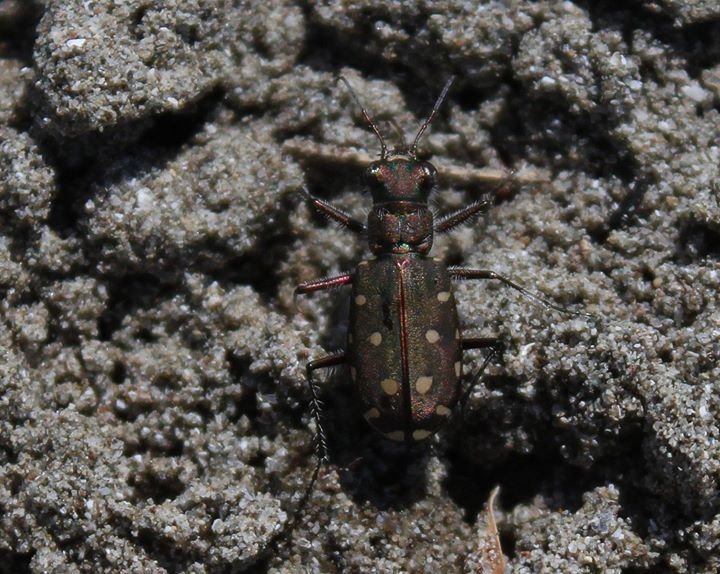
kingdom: Animalia
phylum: Arthropoda
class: Insecta
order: Coleoptera
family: Carabidae
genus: Cicindela
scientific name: Cicindela littoralis
